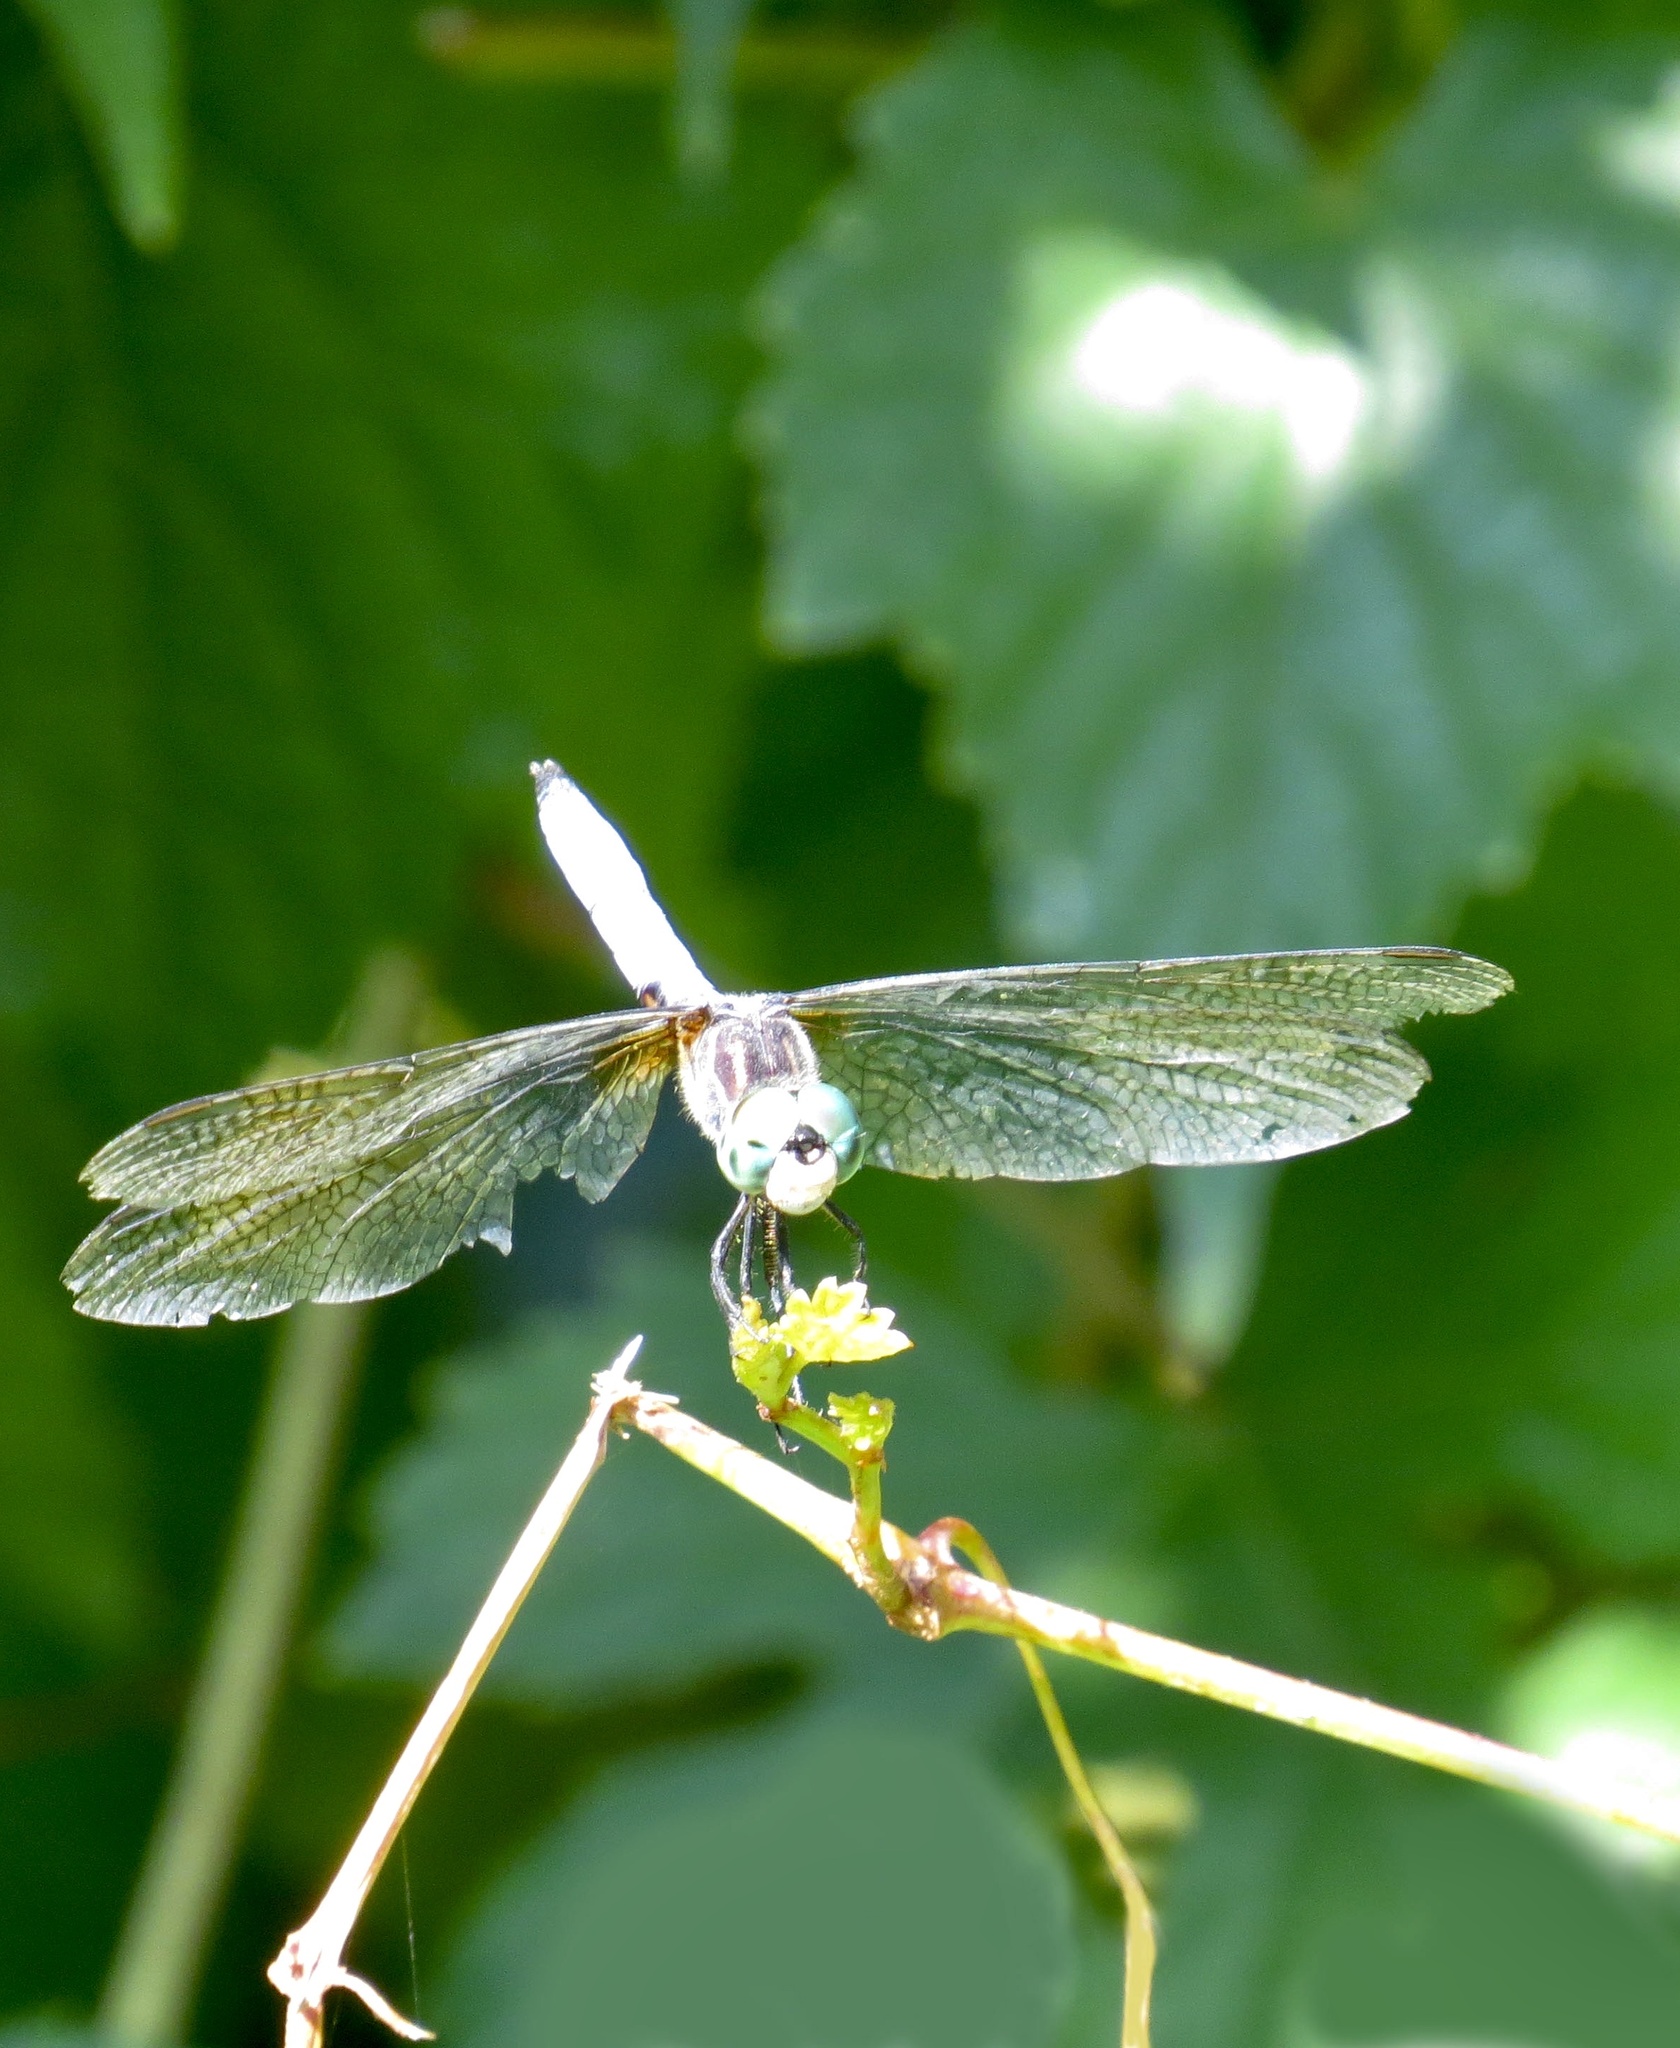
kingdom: Animalia
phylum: Arthropoda
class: Insecta
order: Odonata
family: Libellulidae
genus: Pachydiplax
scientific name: Pachydiplax longipennis
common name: Blue dasher
